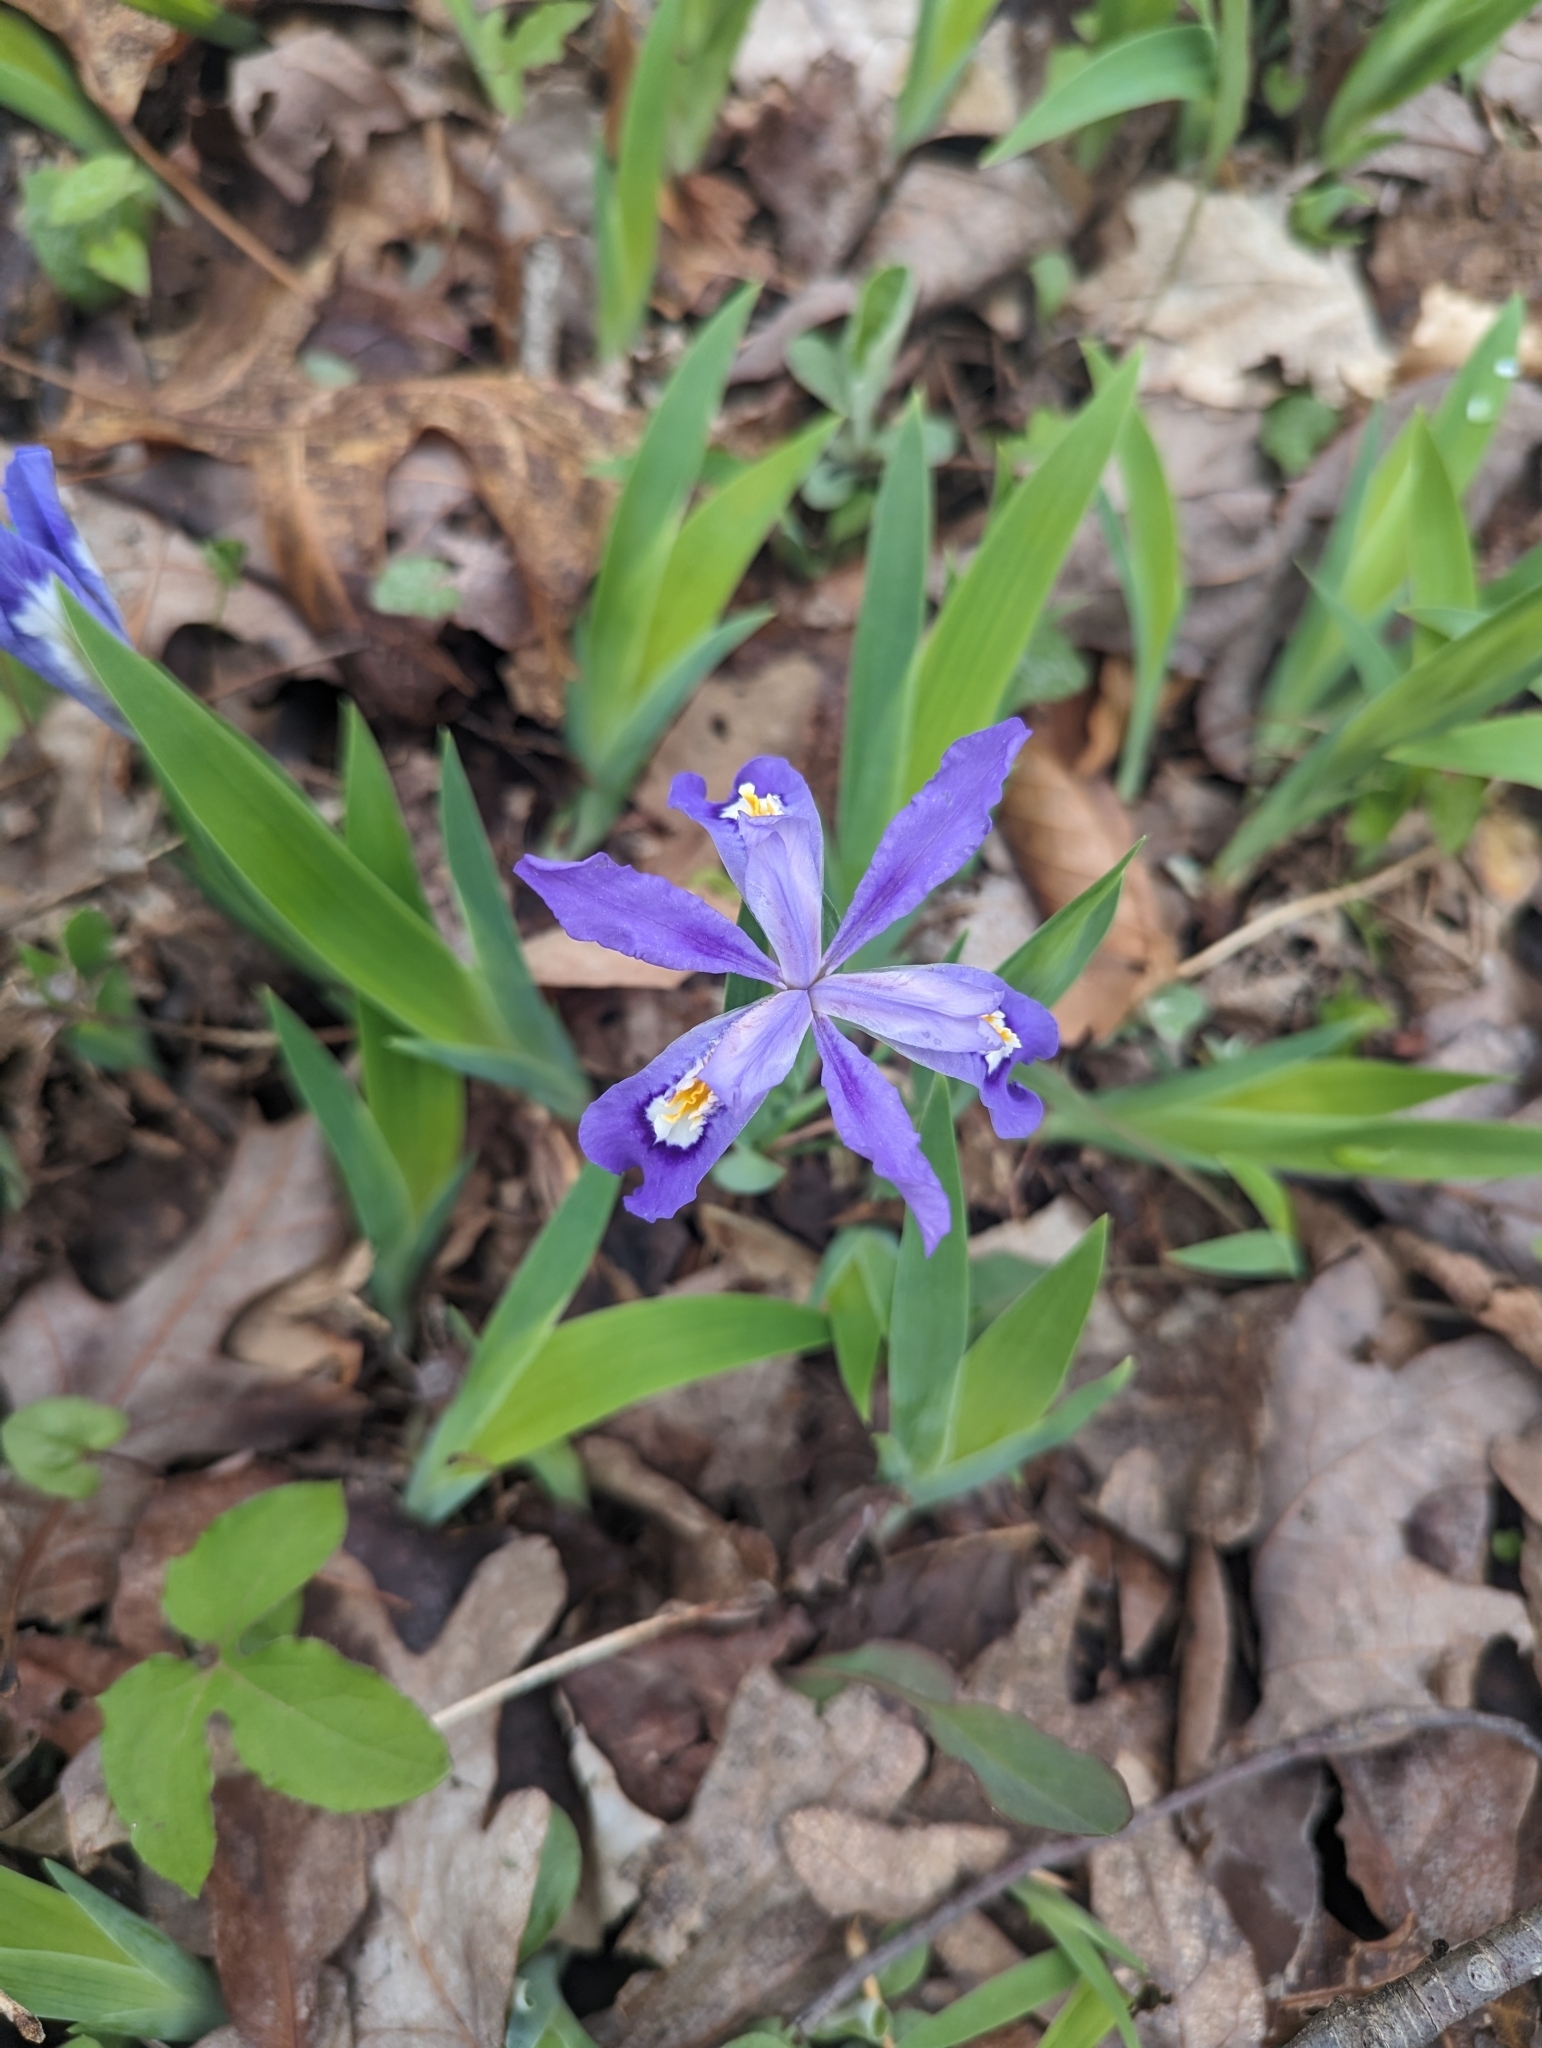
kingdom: Plantae
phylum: Tracheophyta
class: Liliopsida
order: Asparagales
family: Iridaceae
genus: Iris
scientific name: Iris cristata
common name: Crested iris
